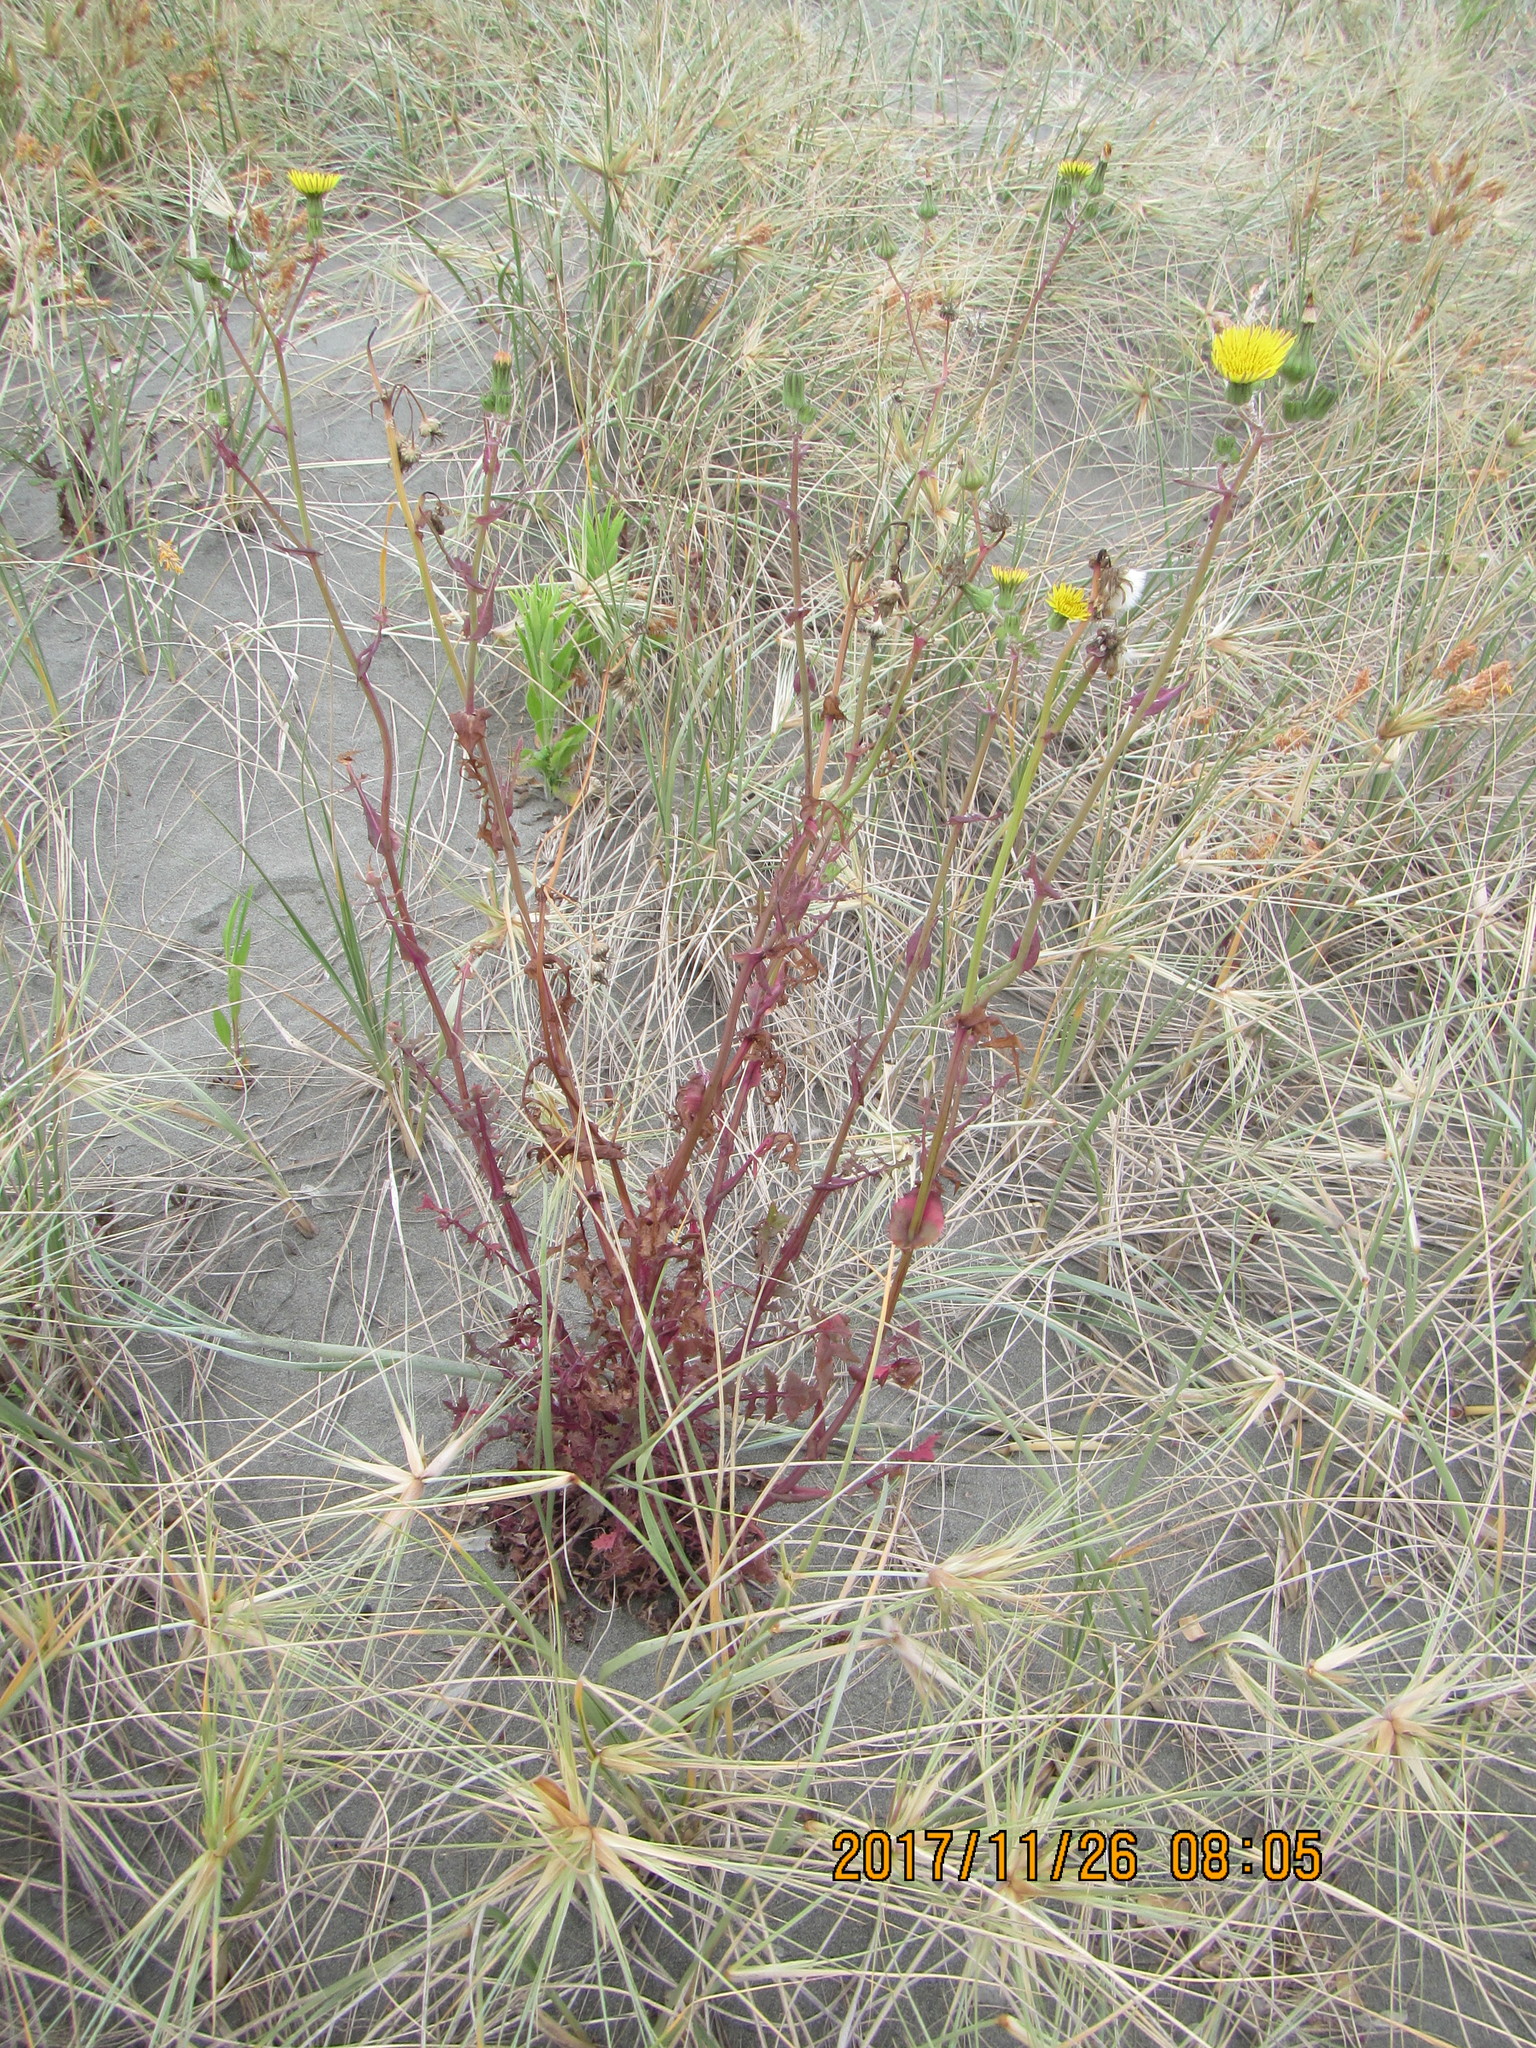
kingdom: Plantae
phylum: Tracheophyta
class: Magnoliopsida
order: Asterales
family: Asteraceae
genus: Sonchus
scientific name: Sonchus oleraceus
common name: Common sowthistle
